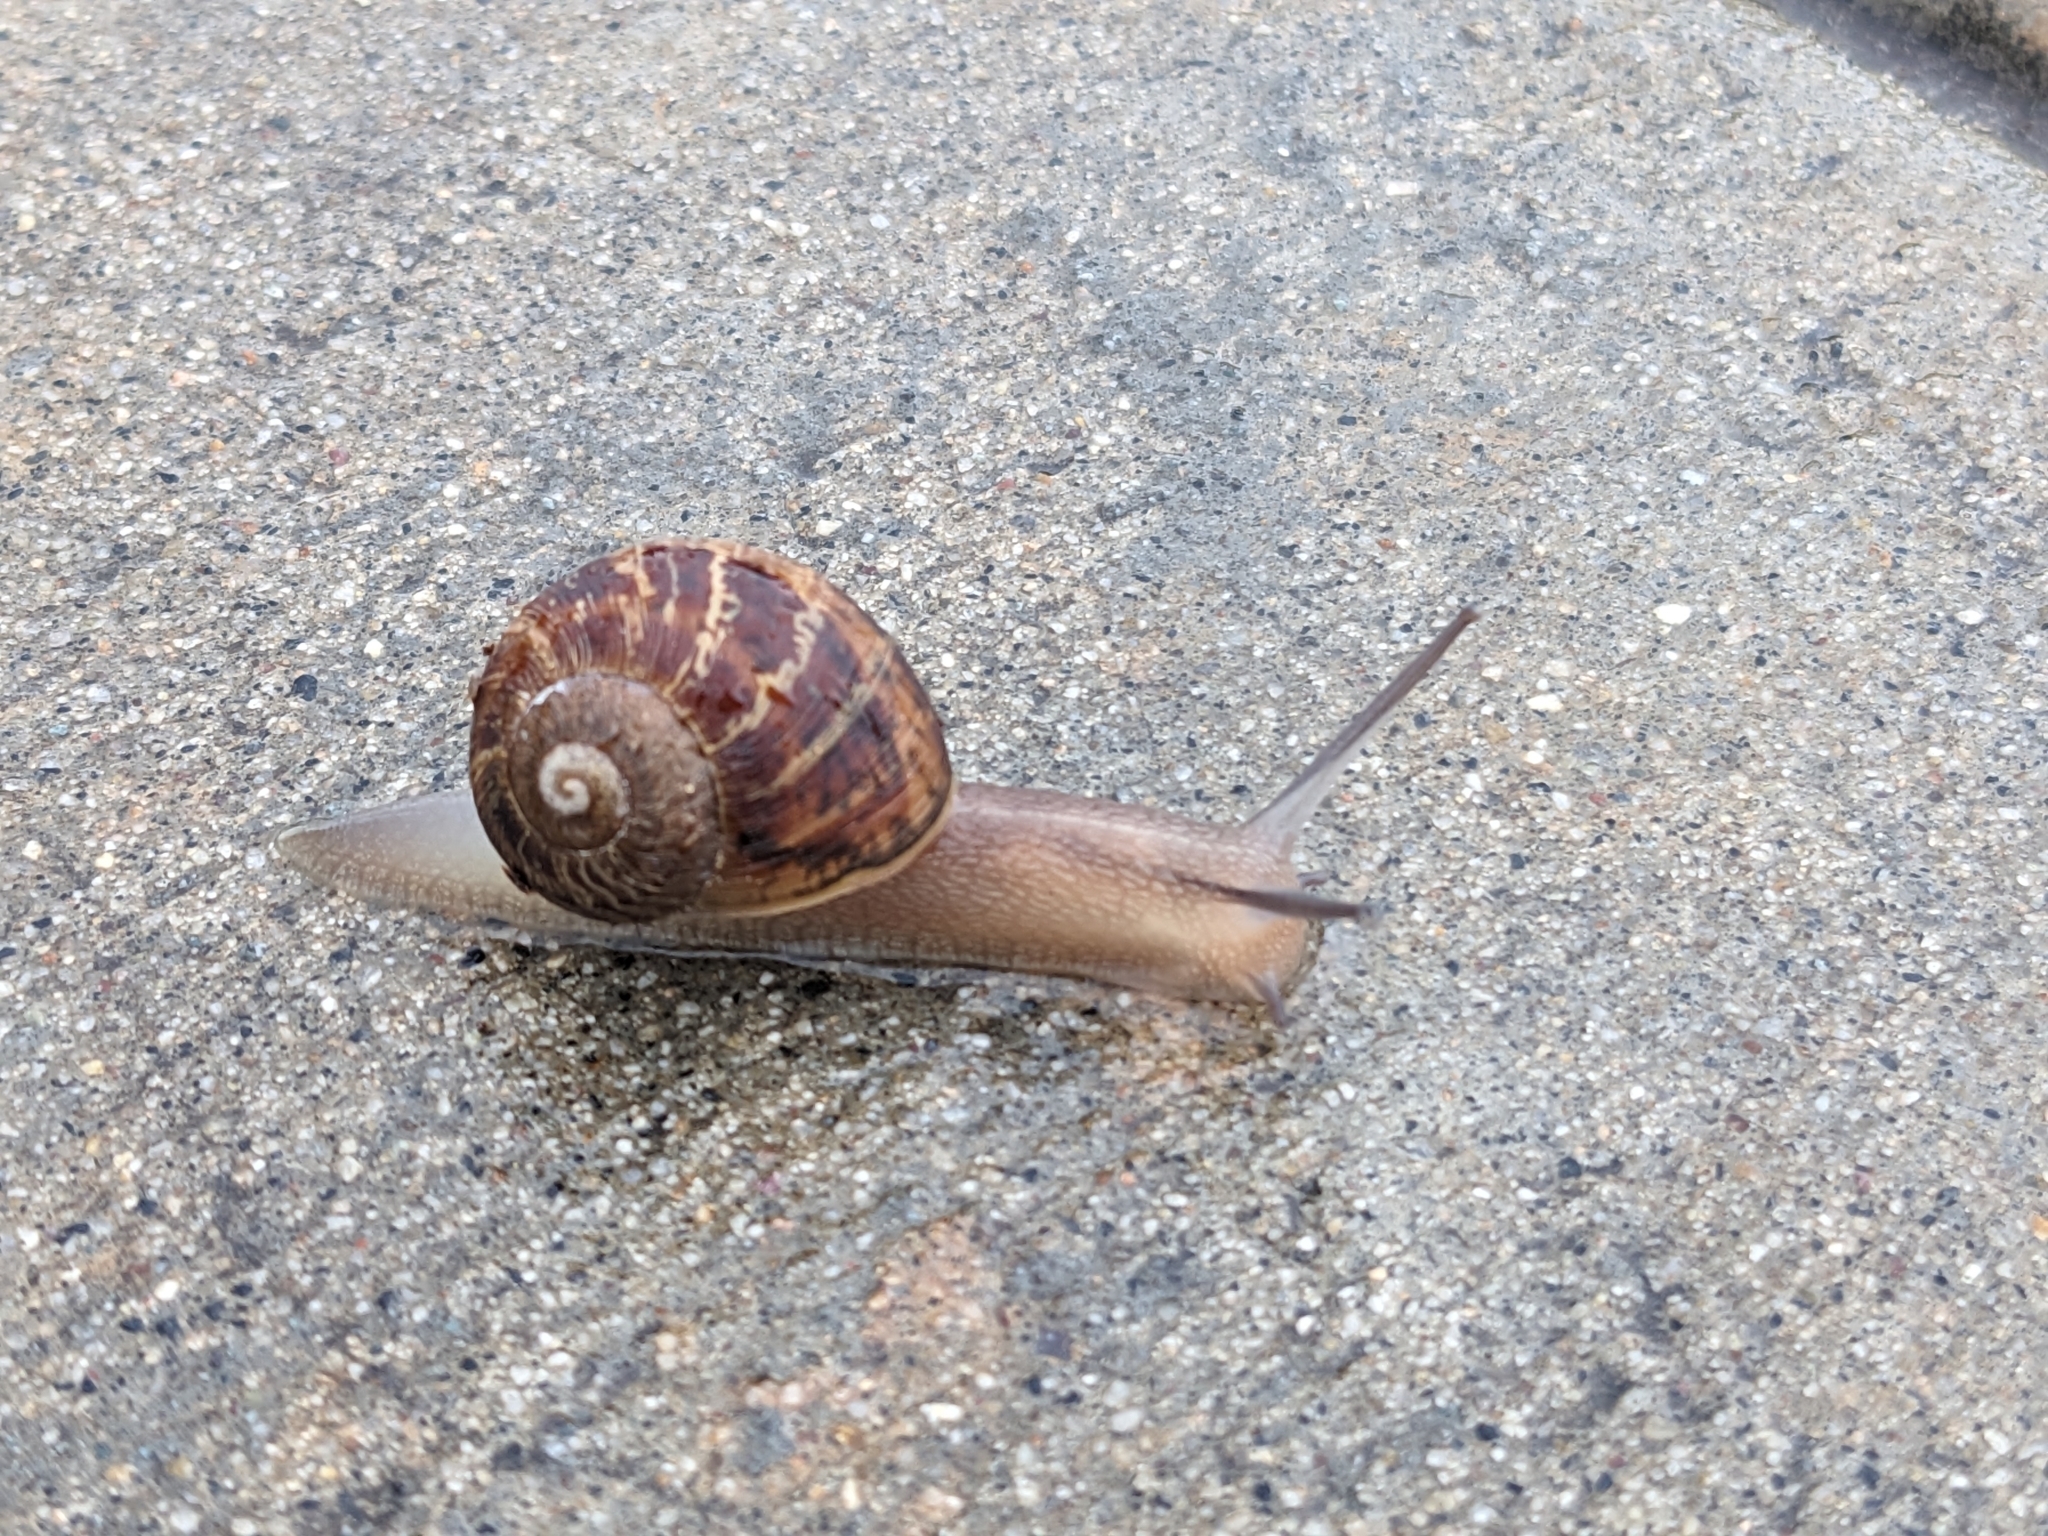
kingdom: Animalia
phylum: Mollusca
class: Gastropoda
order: Stylommatophora
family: Helicidae
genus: Cornu
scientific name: Cornu aspersum
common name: Brown garden snail
